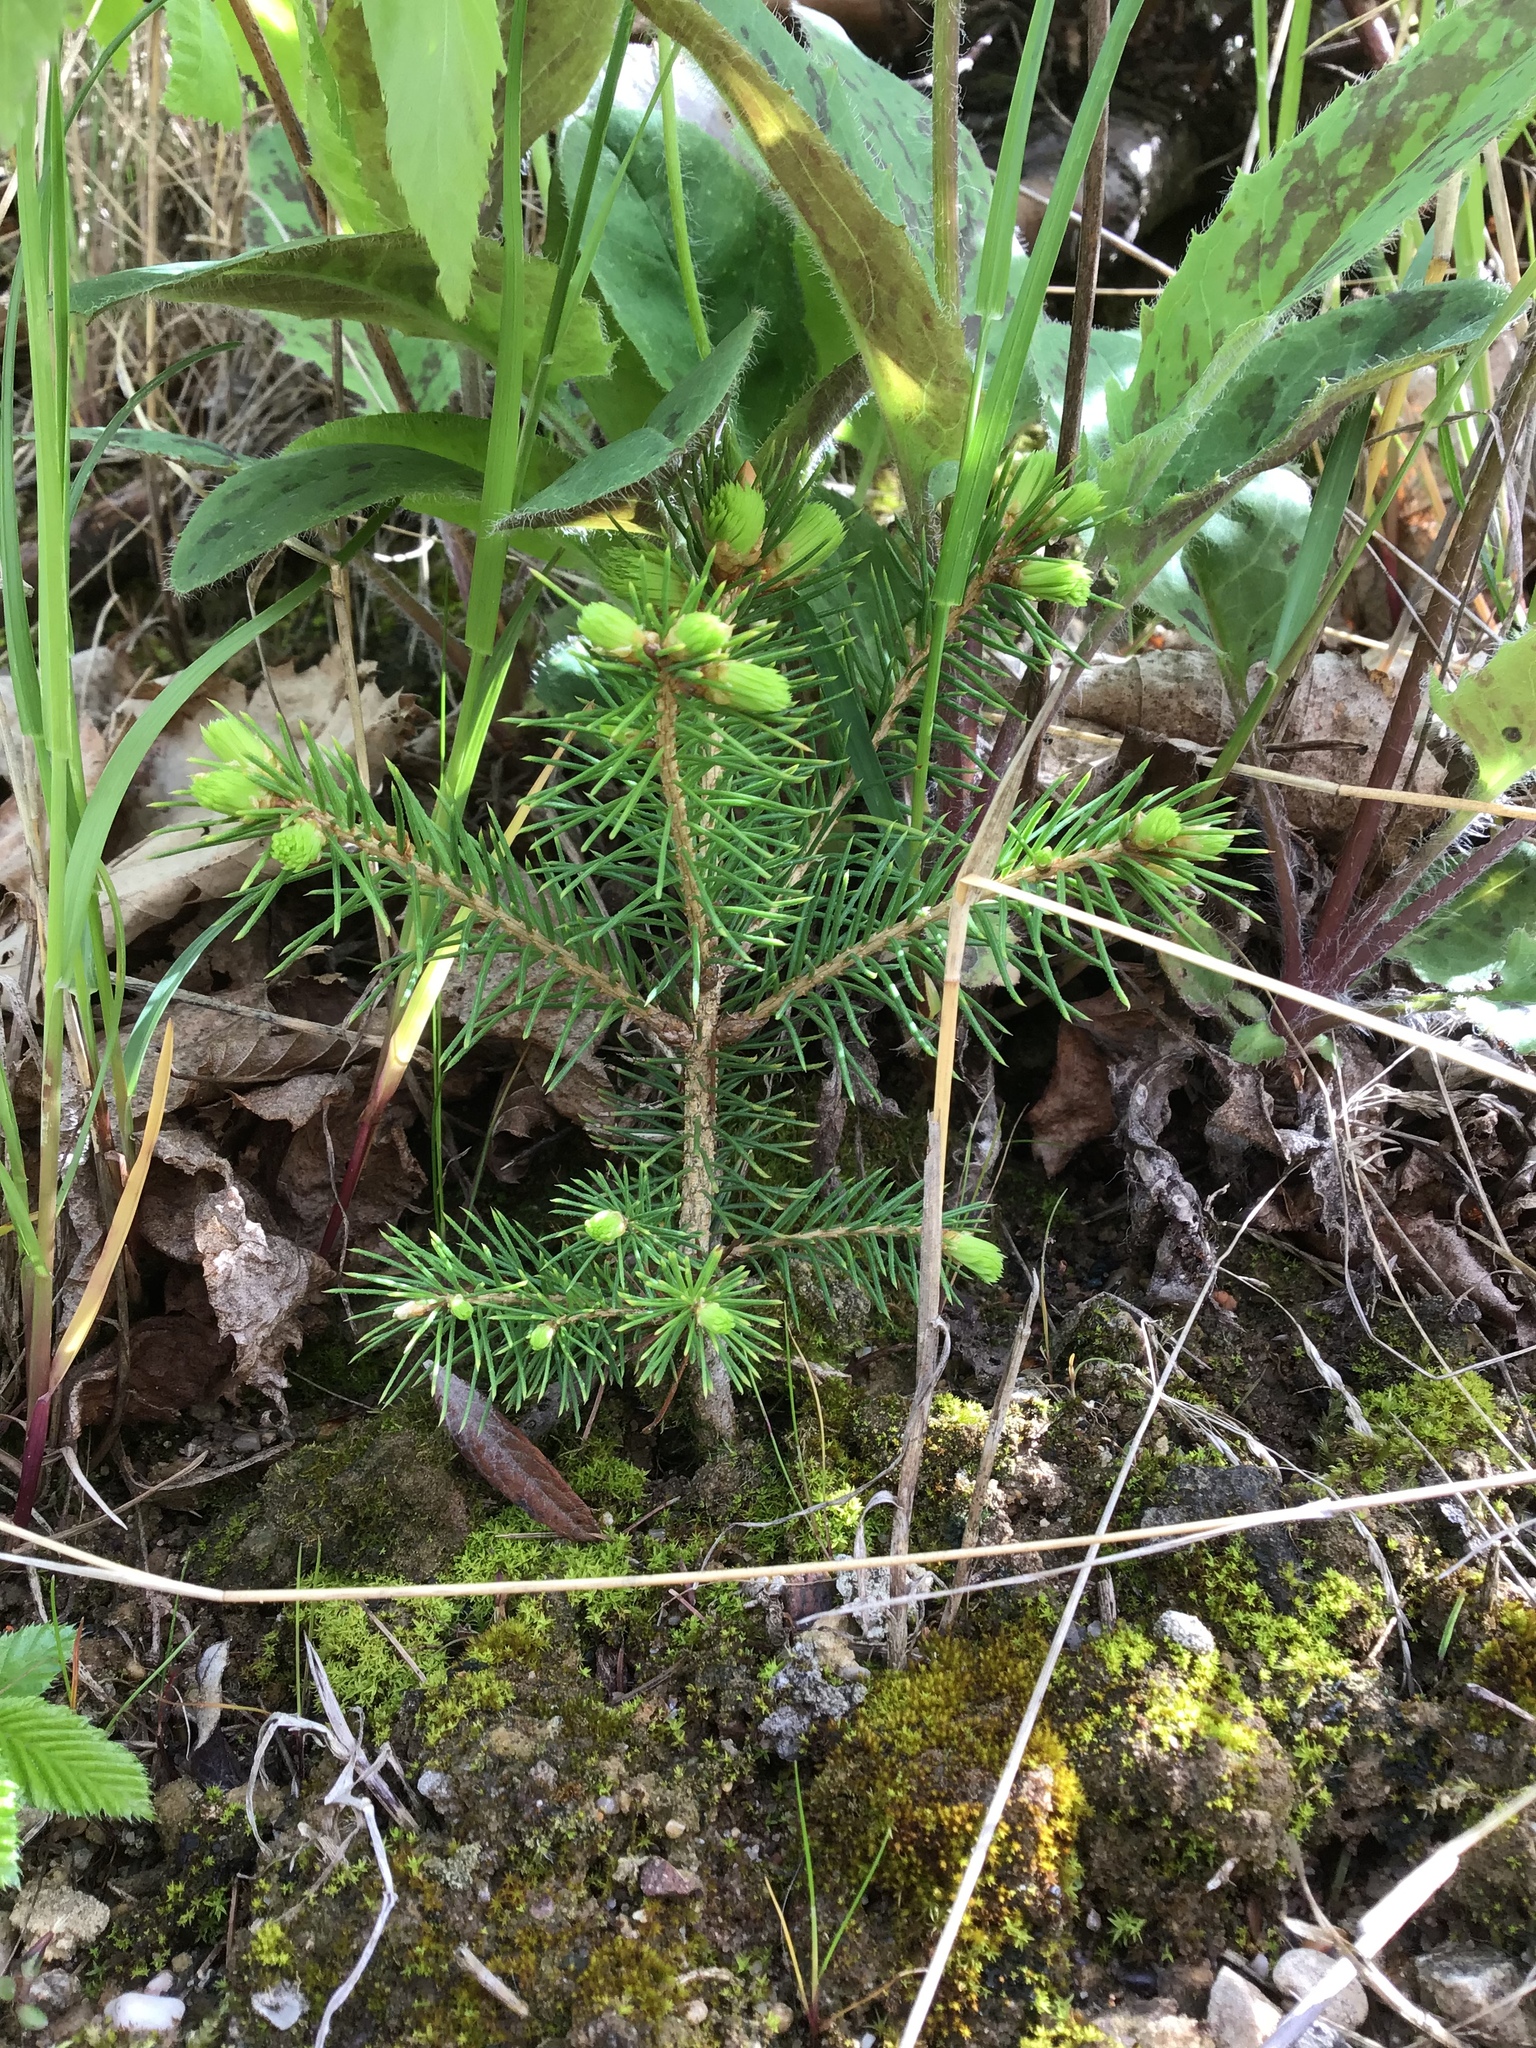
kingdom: Plantae
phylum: Tracheophyta
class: Pinopsida
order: Pinales
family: Pinaceae
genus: Picea
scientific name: Picea abies
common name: Norway spruce
